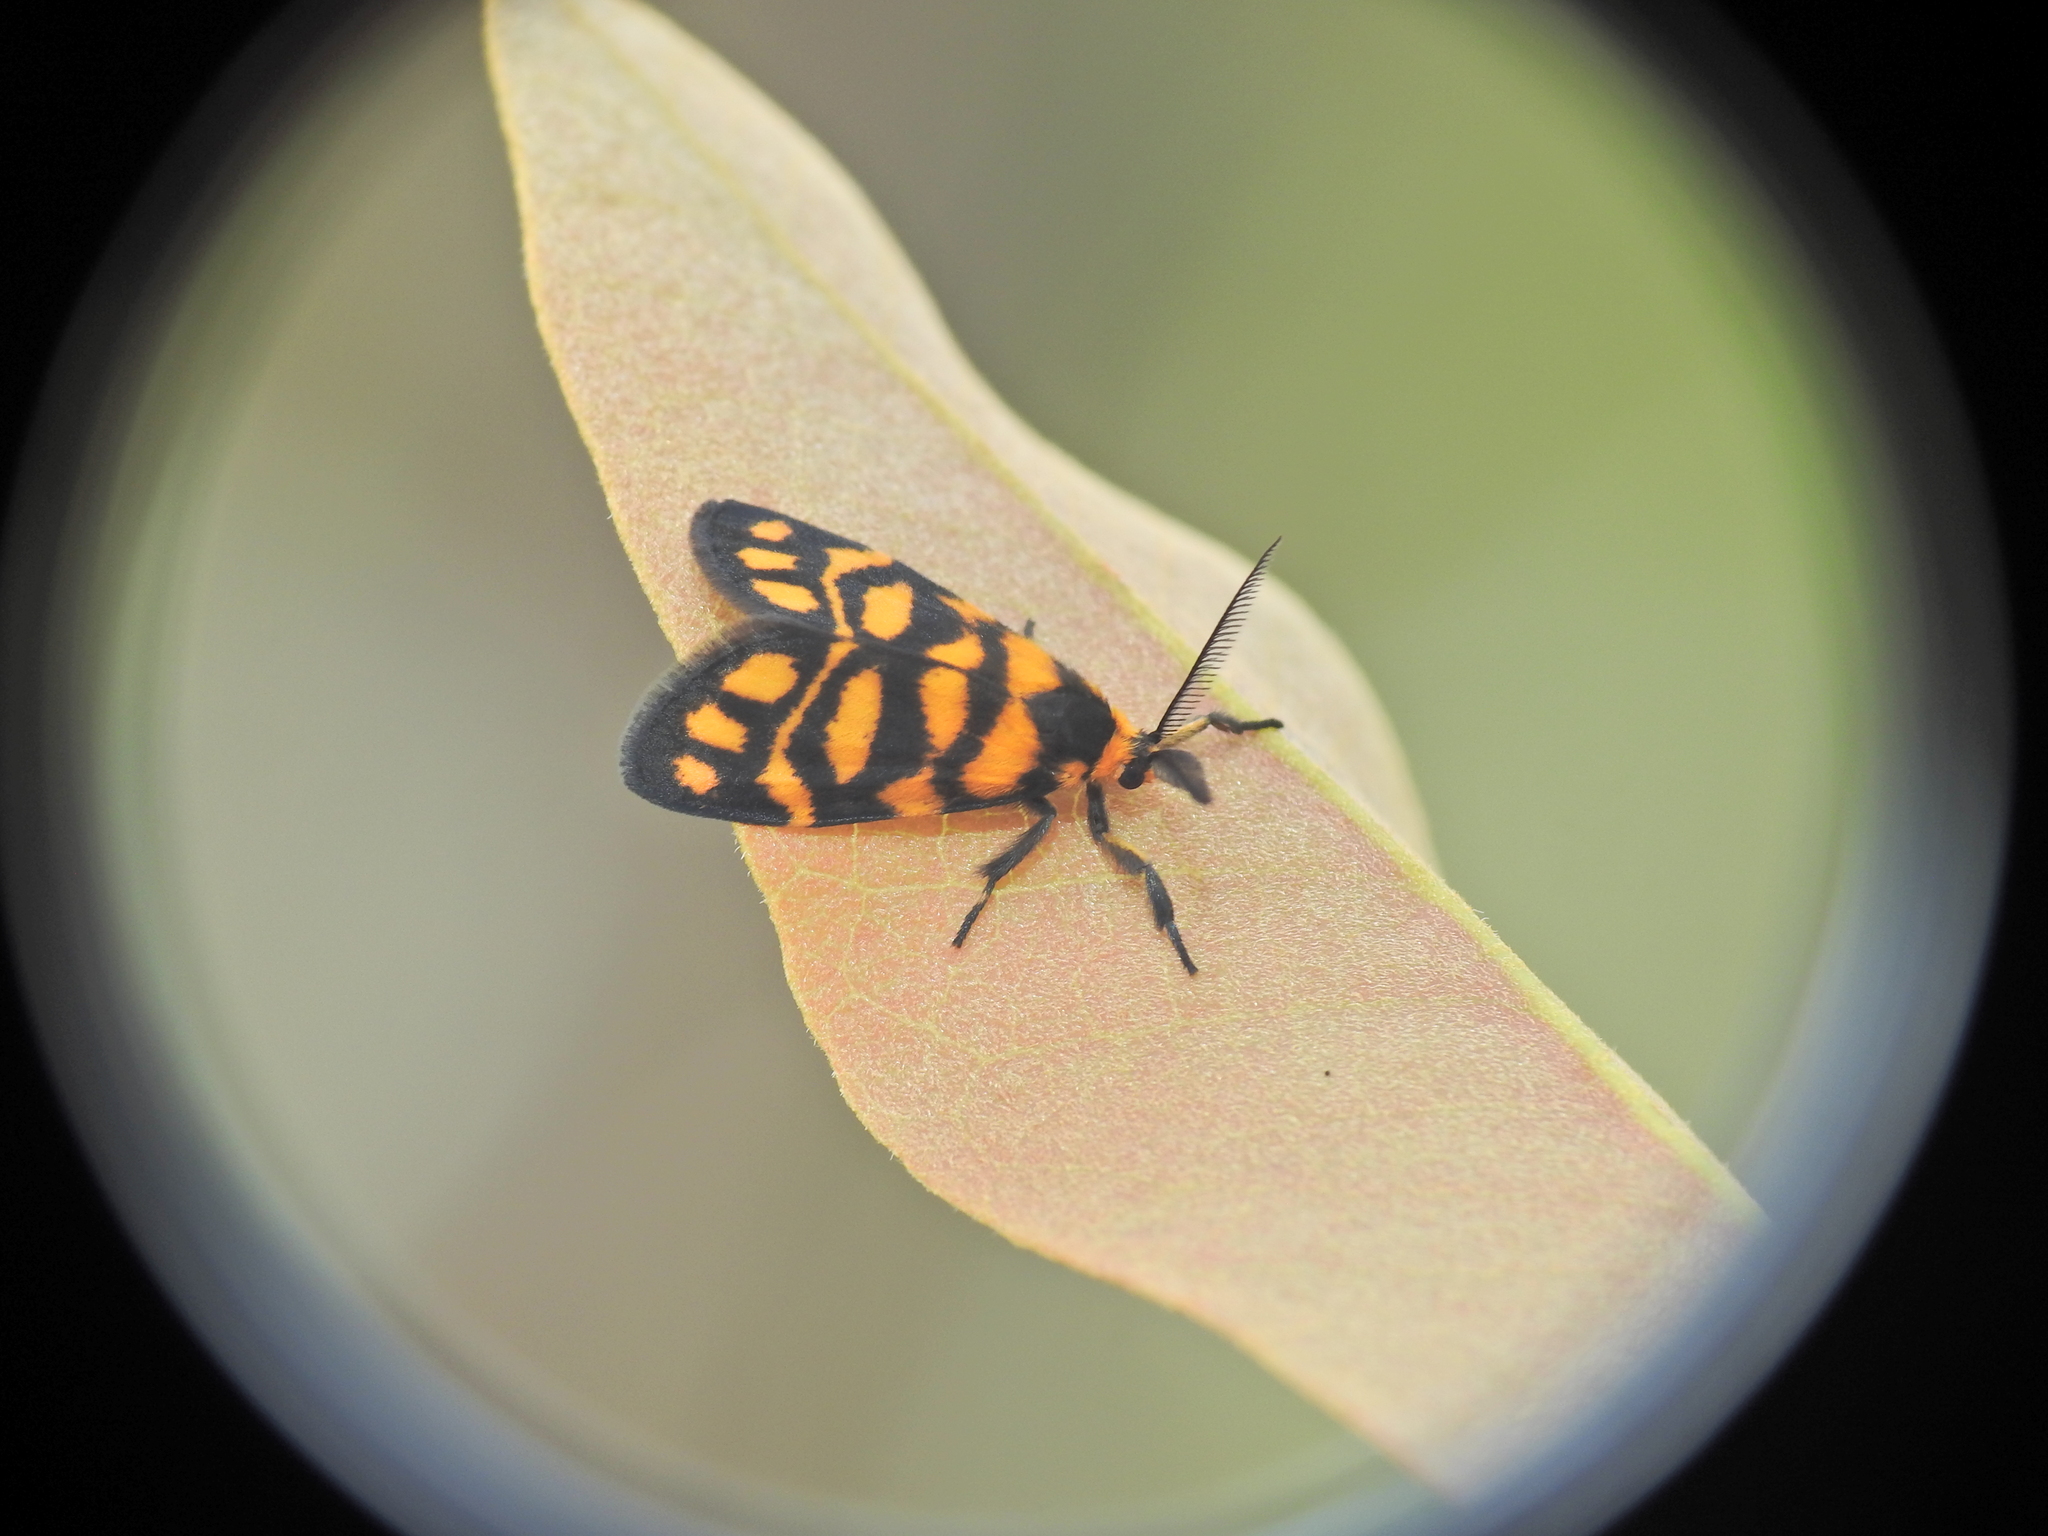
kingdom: Animalia
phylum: Arthropoda
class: Insecta
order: Lepidoptera
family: Erebidae
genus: Asura
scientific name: Asura lydia
